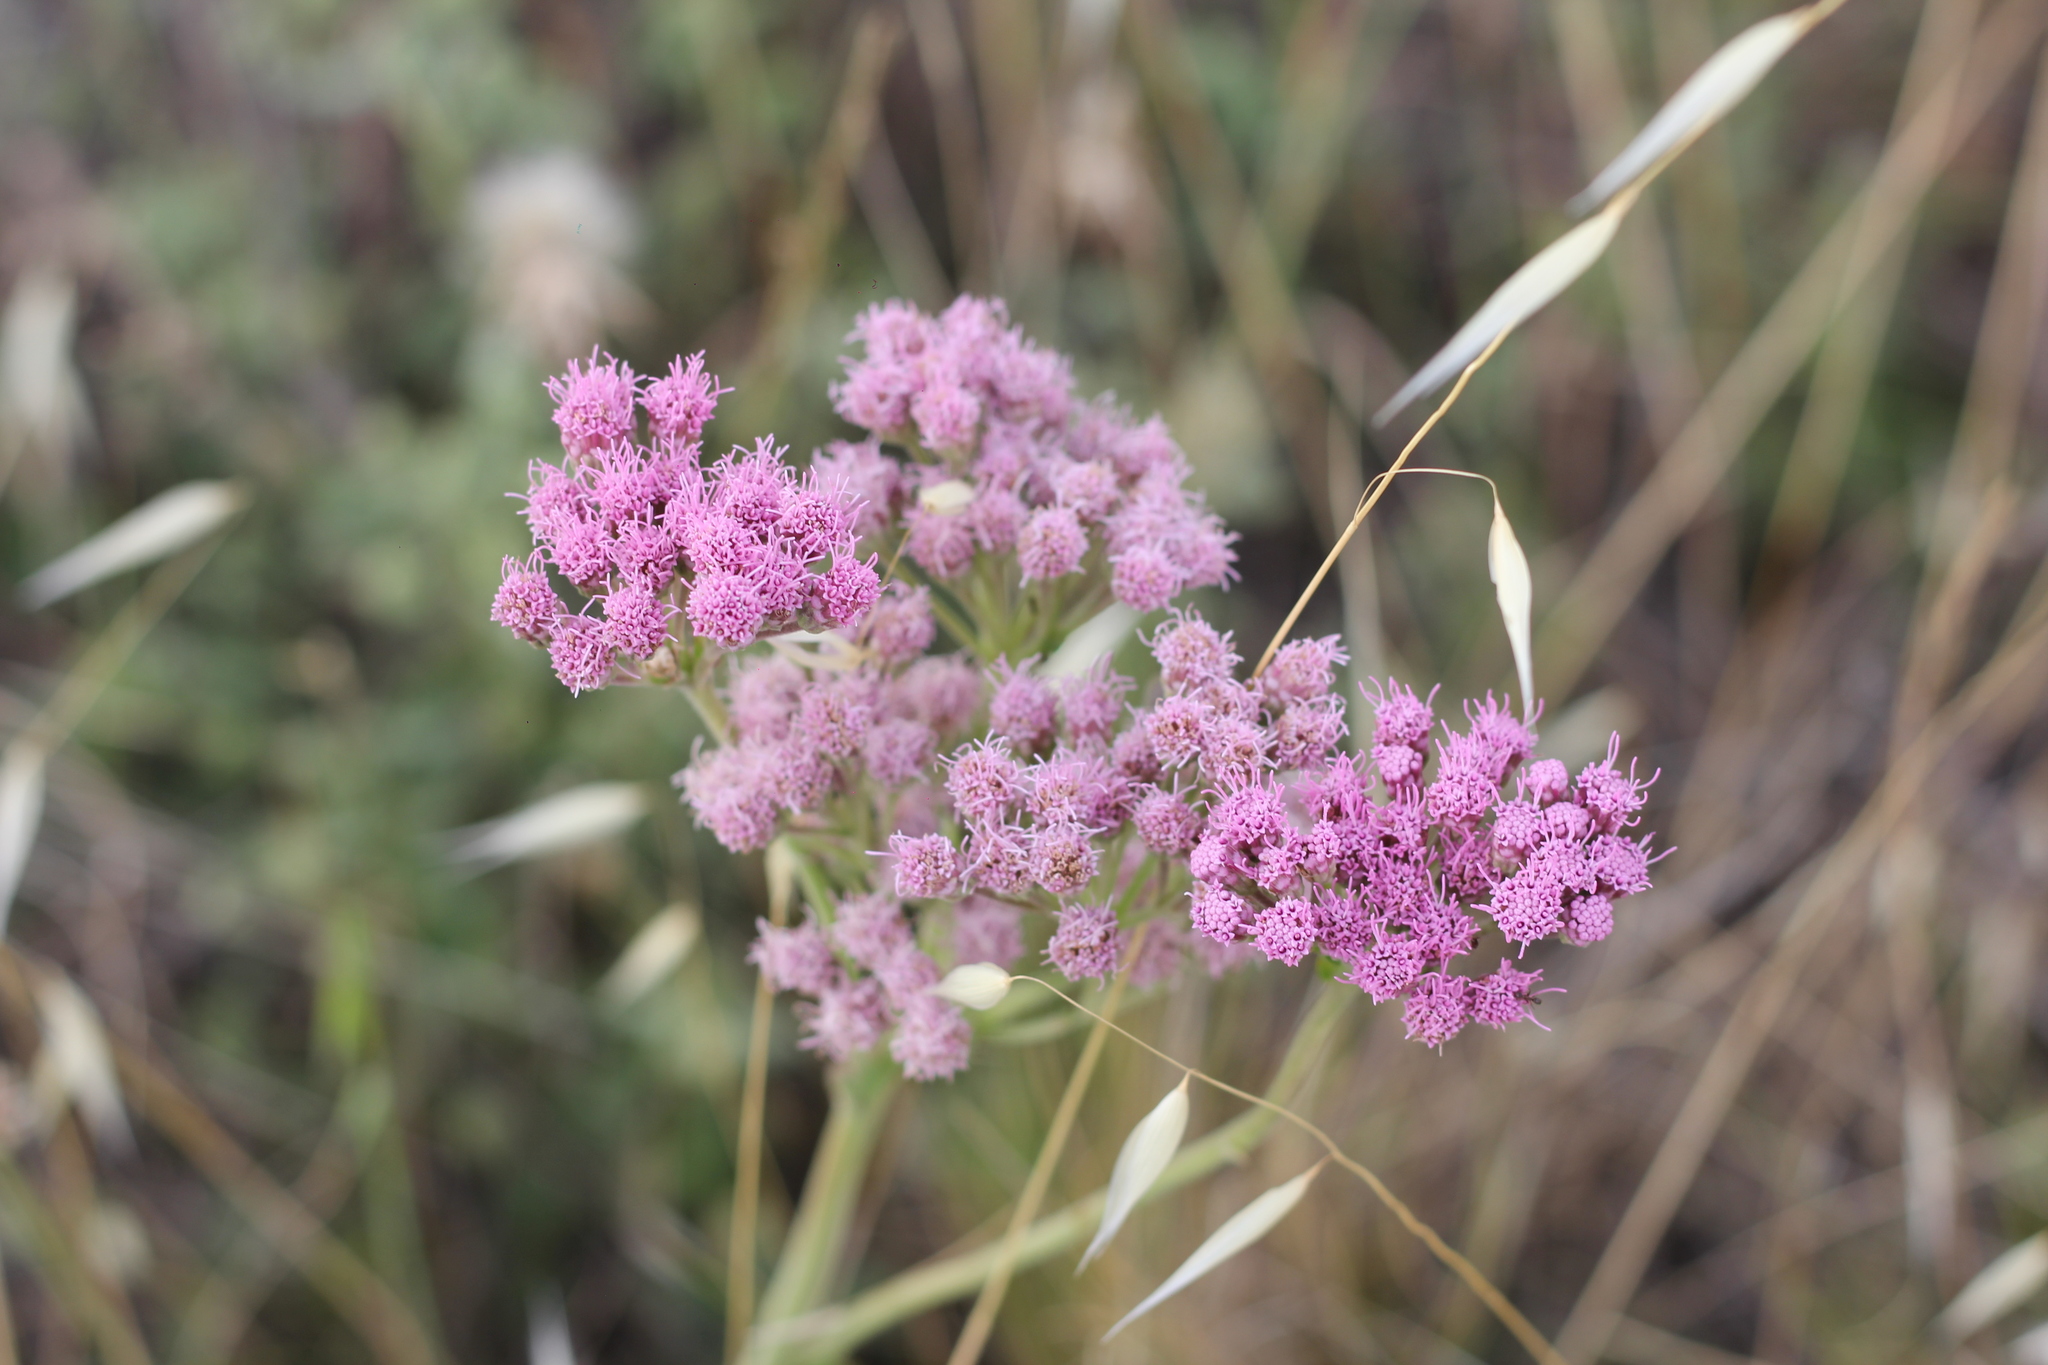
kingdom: Plantae
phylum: Tracheophyta
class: Magnoliopsida
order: Asterales
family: Asteraceae
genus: Gyptis
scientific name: Gyptis tanacetifolia
